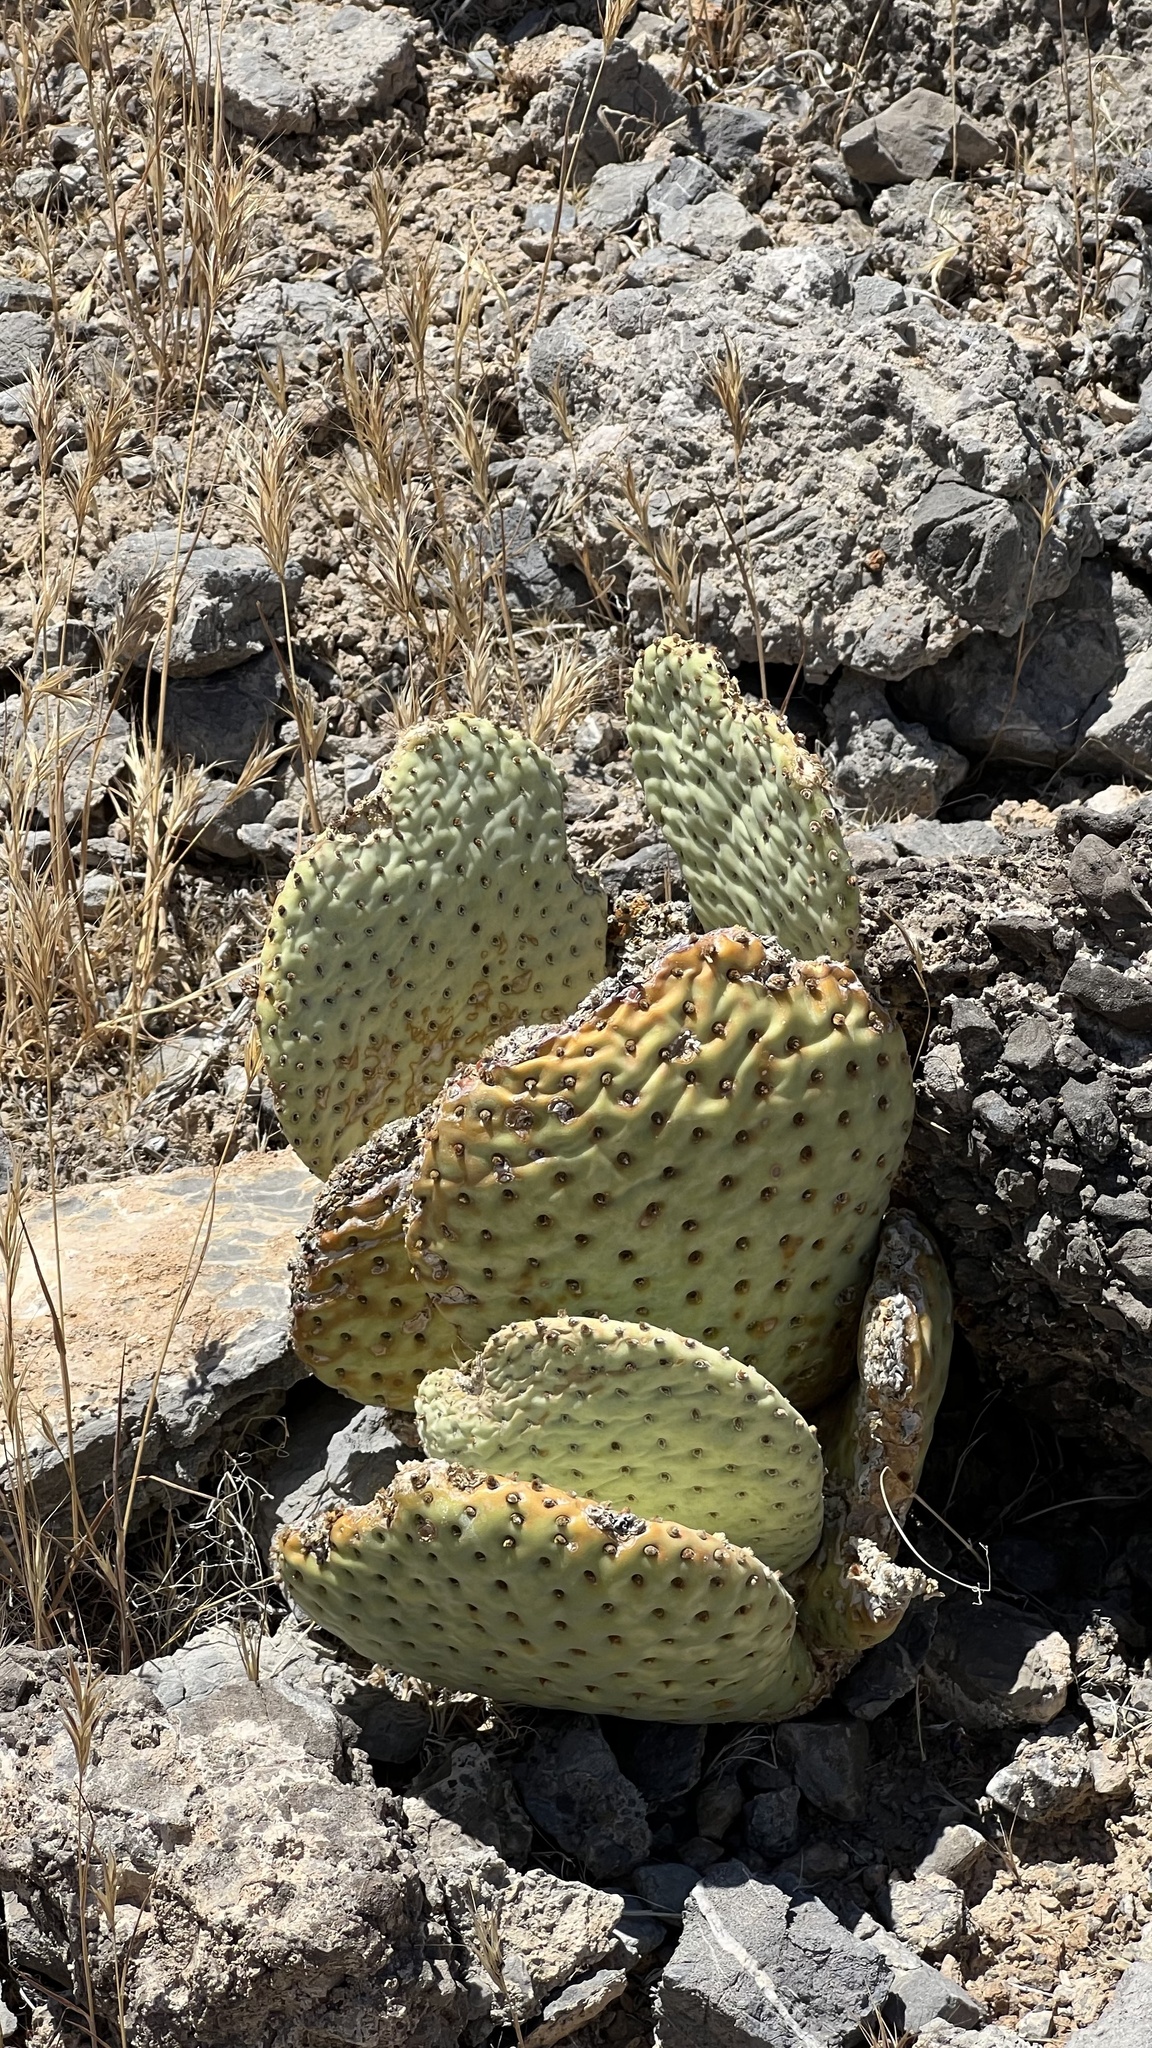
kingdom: Plantae
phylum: Tracheophyta
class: Magnoliopsida
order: Caryophyllales
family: Cactaceae
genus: Opuntia
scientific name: Opuntia basilaris
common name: Beavertail prickly-pear
